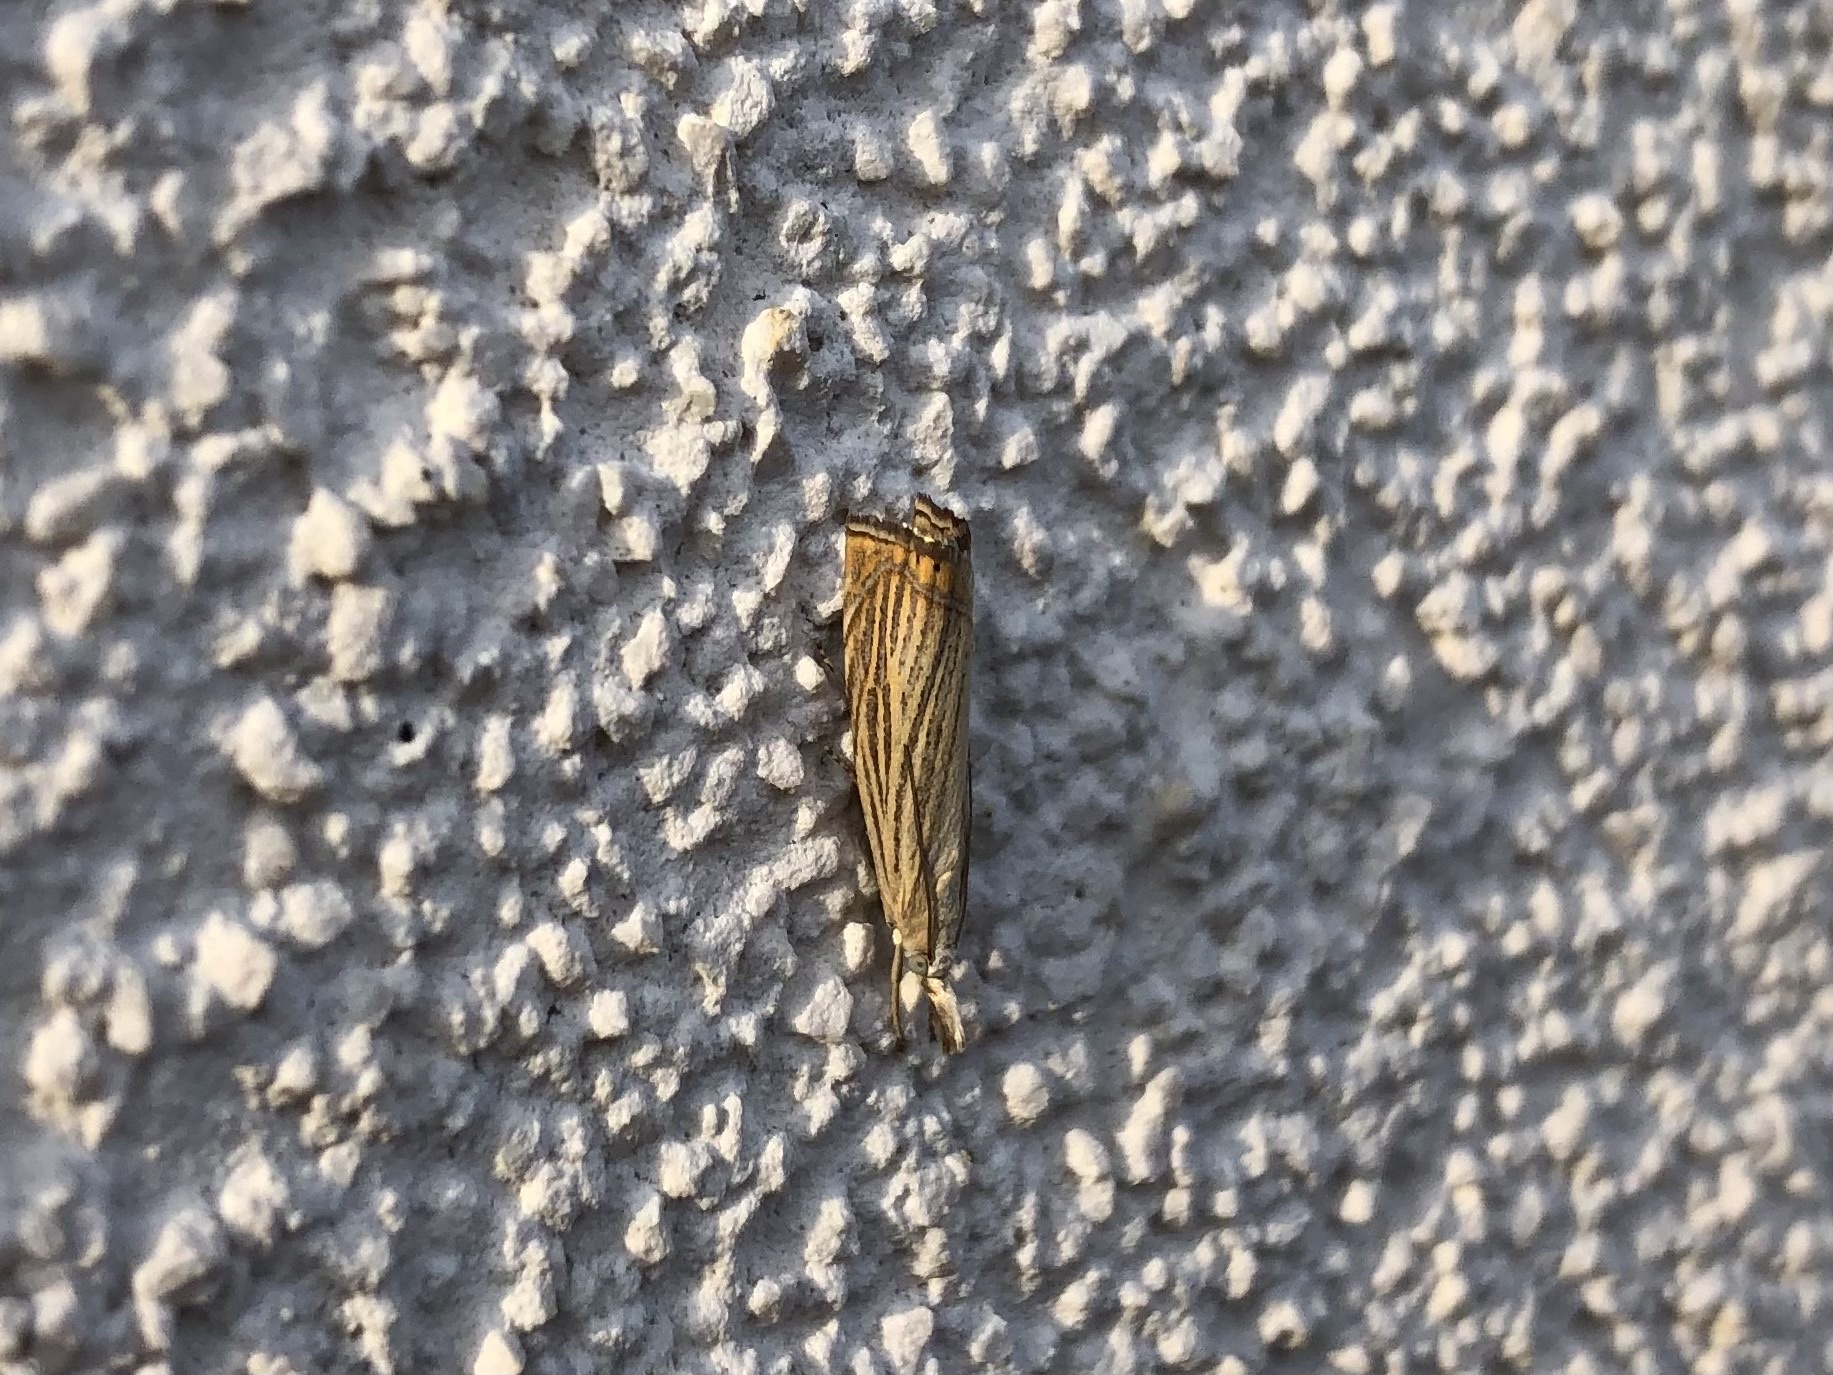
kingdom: Animalia
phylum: Arthropoda
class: Insecta
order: Lepidoptera
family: Crambidae
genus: Chrysoteuchia
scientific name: Chrysoteuchia culmella
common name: Garden grass-veneer
